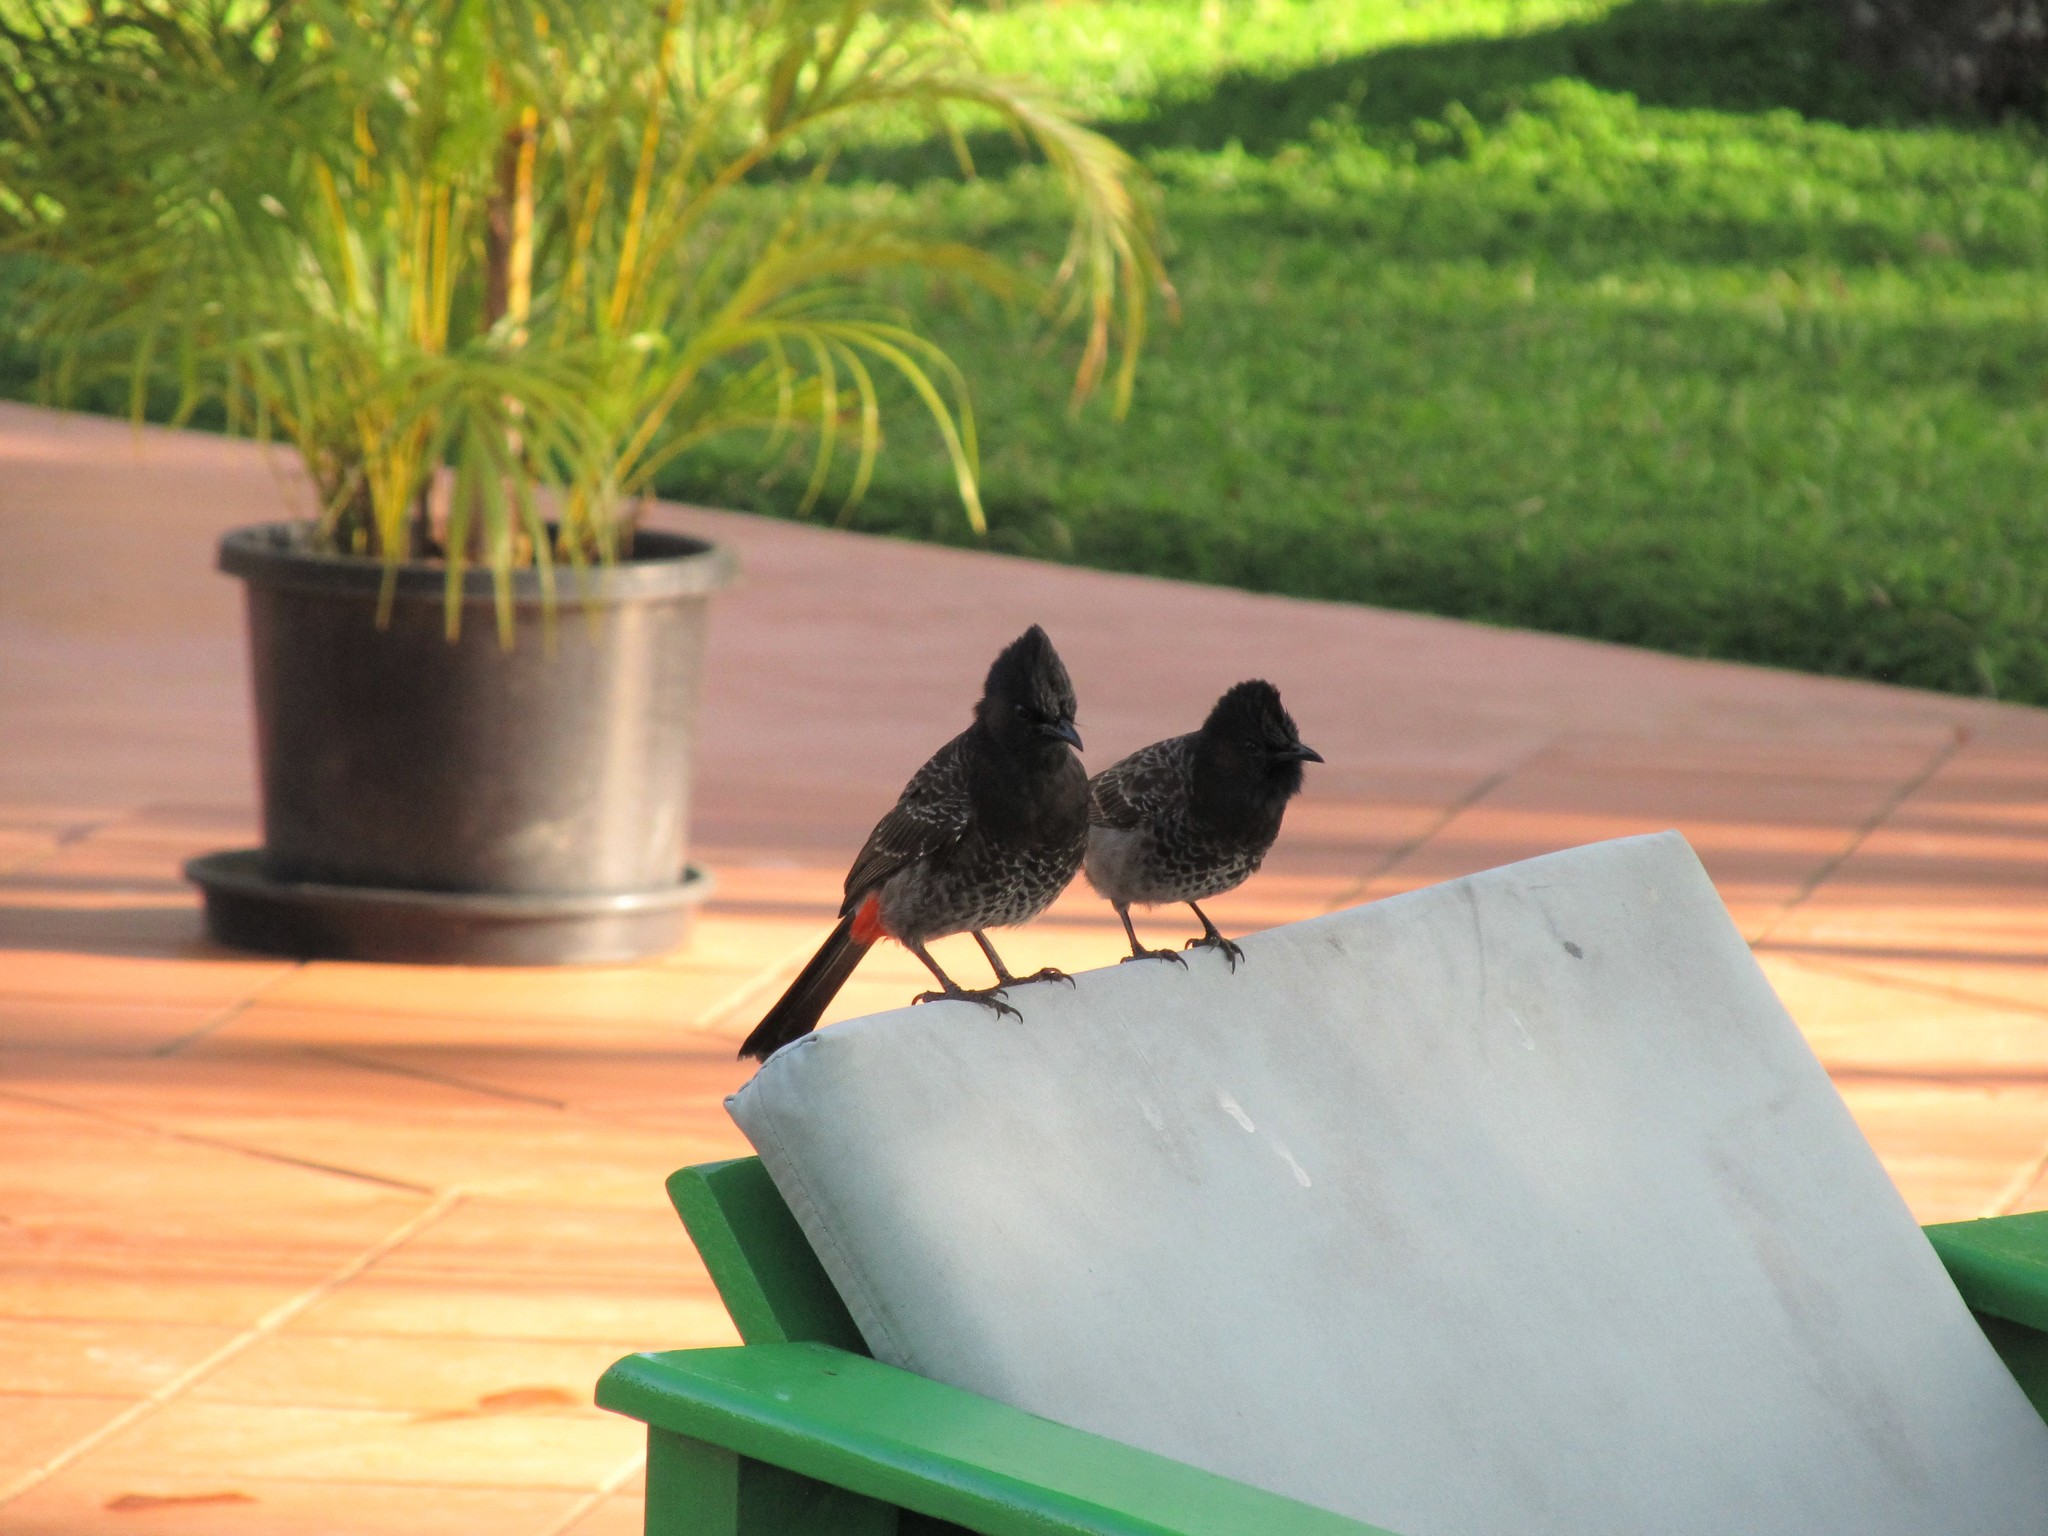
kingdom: Animalia
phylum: Chordata
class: Aves
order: Passeriformes
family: Pycnonotidae
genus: Pycnonotus
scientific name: Pycnonotus cafer
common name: Red-vented bulbul
